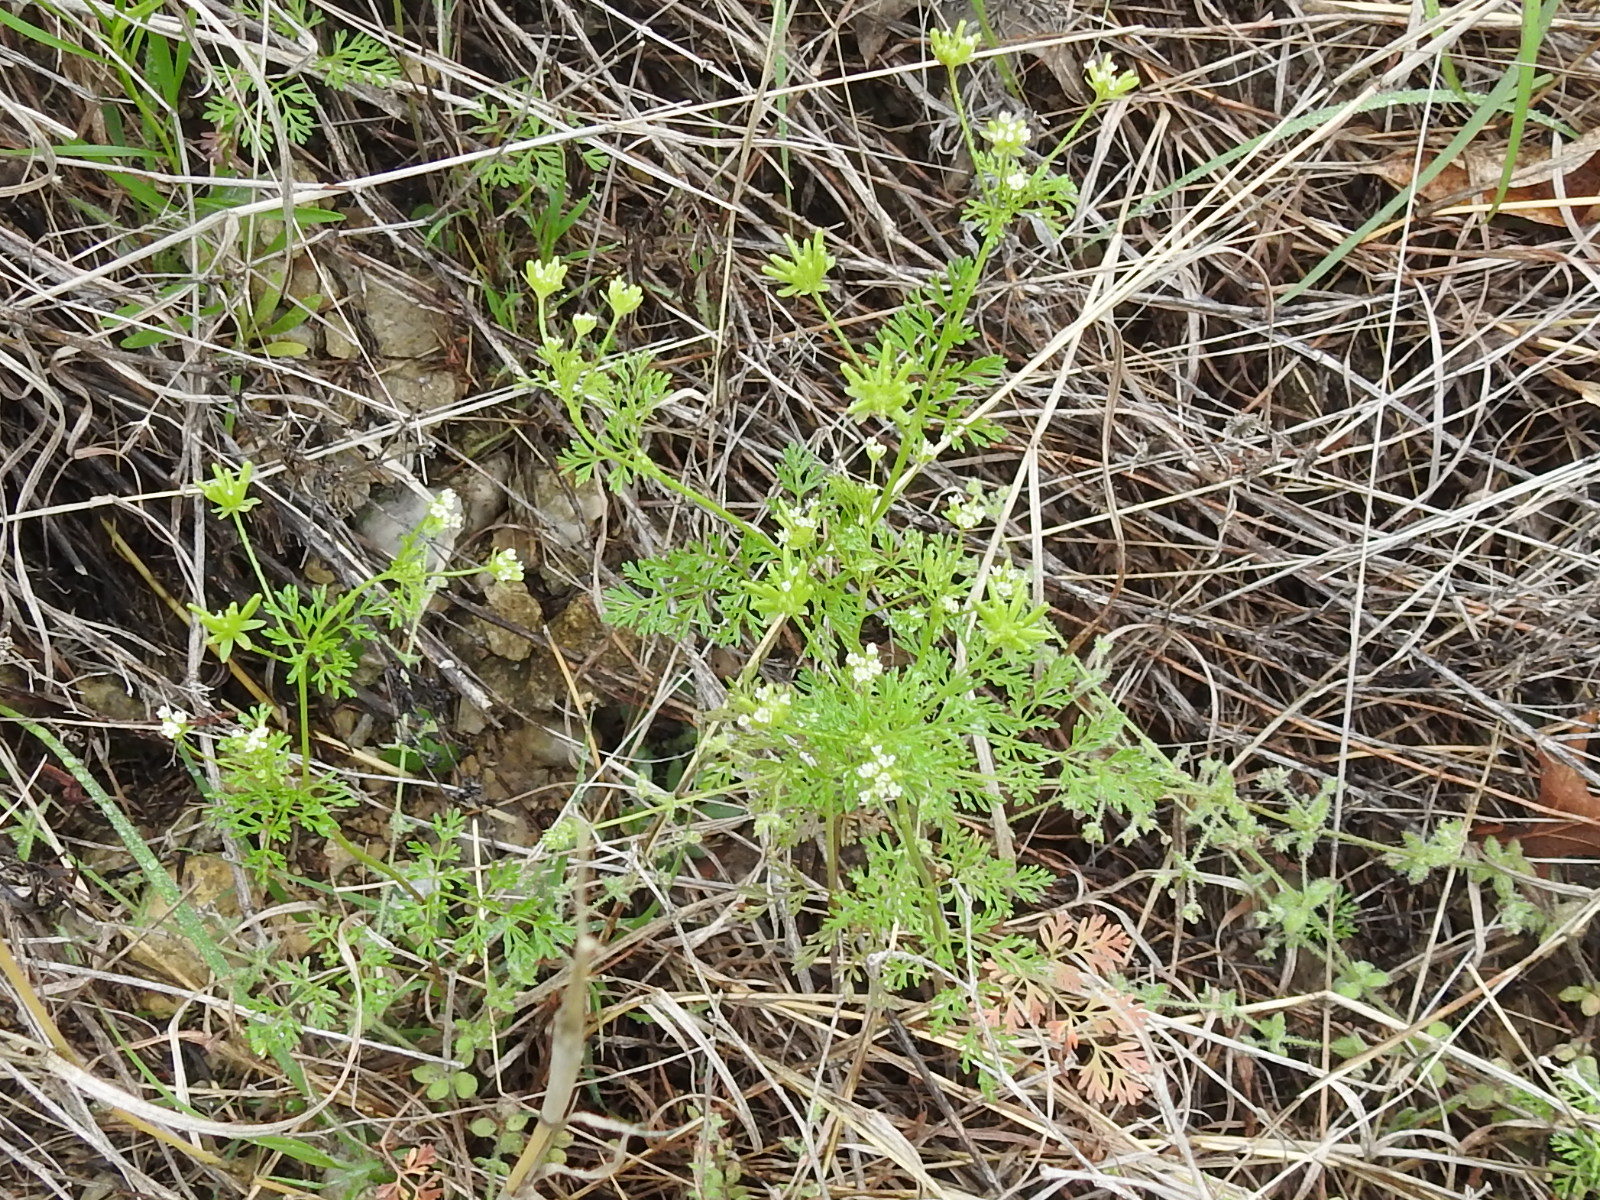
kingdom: Plantae
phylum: Tracheophyta
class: Magnoliopsida
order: Apiales
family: Apiaceae
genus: Chaerophyllum
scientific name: Chaerophyllum tainturieri
